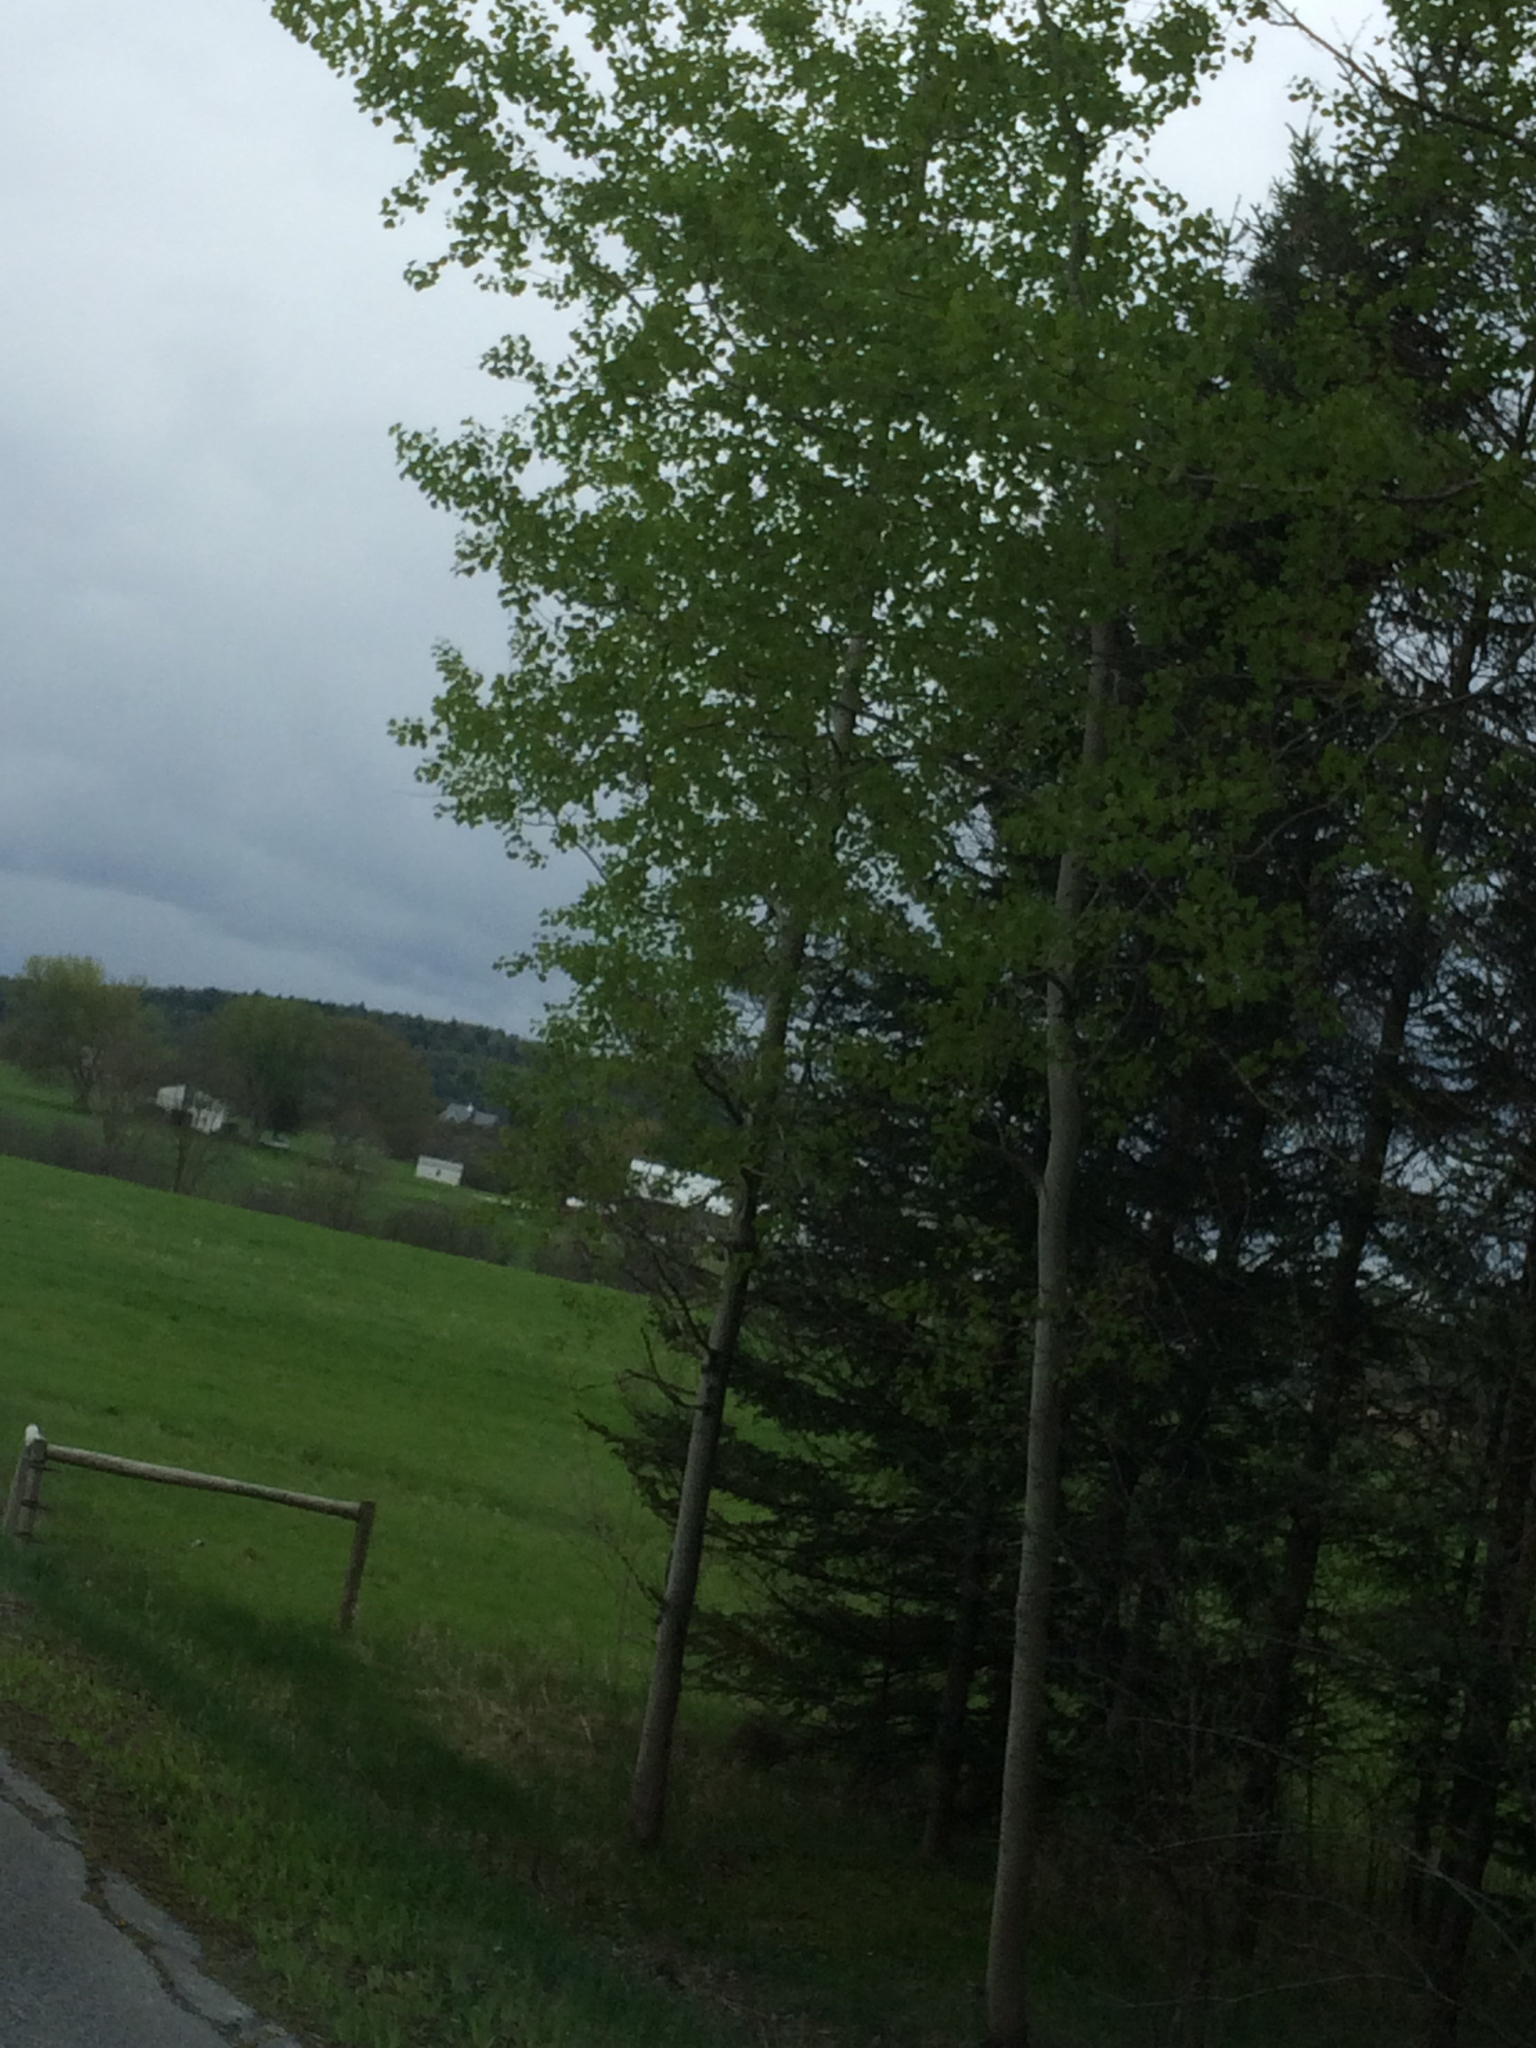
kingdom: Plantae
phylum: Tracheophyta
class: Magnoliopsida
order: Malpighiales
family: Salicaceae
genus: Populus
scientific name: Populus tremuloides
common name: Quaking aspen
